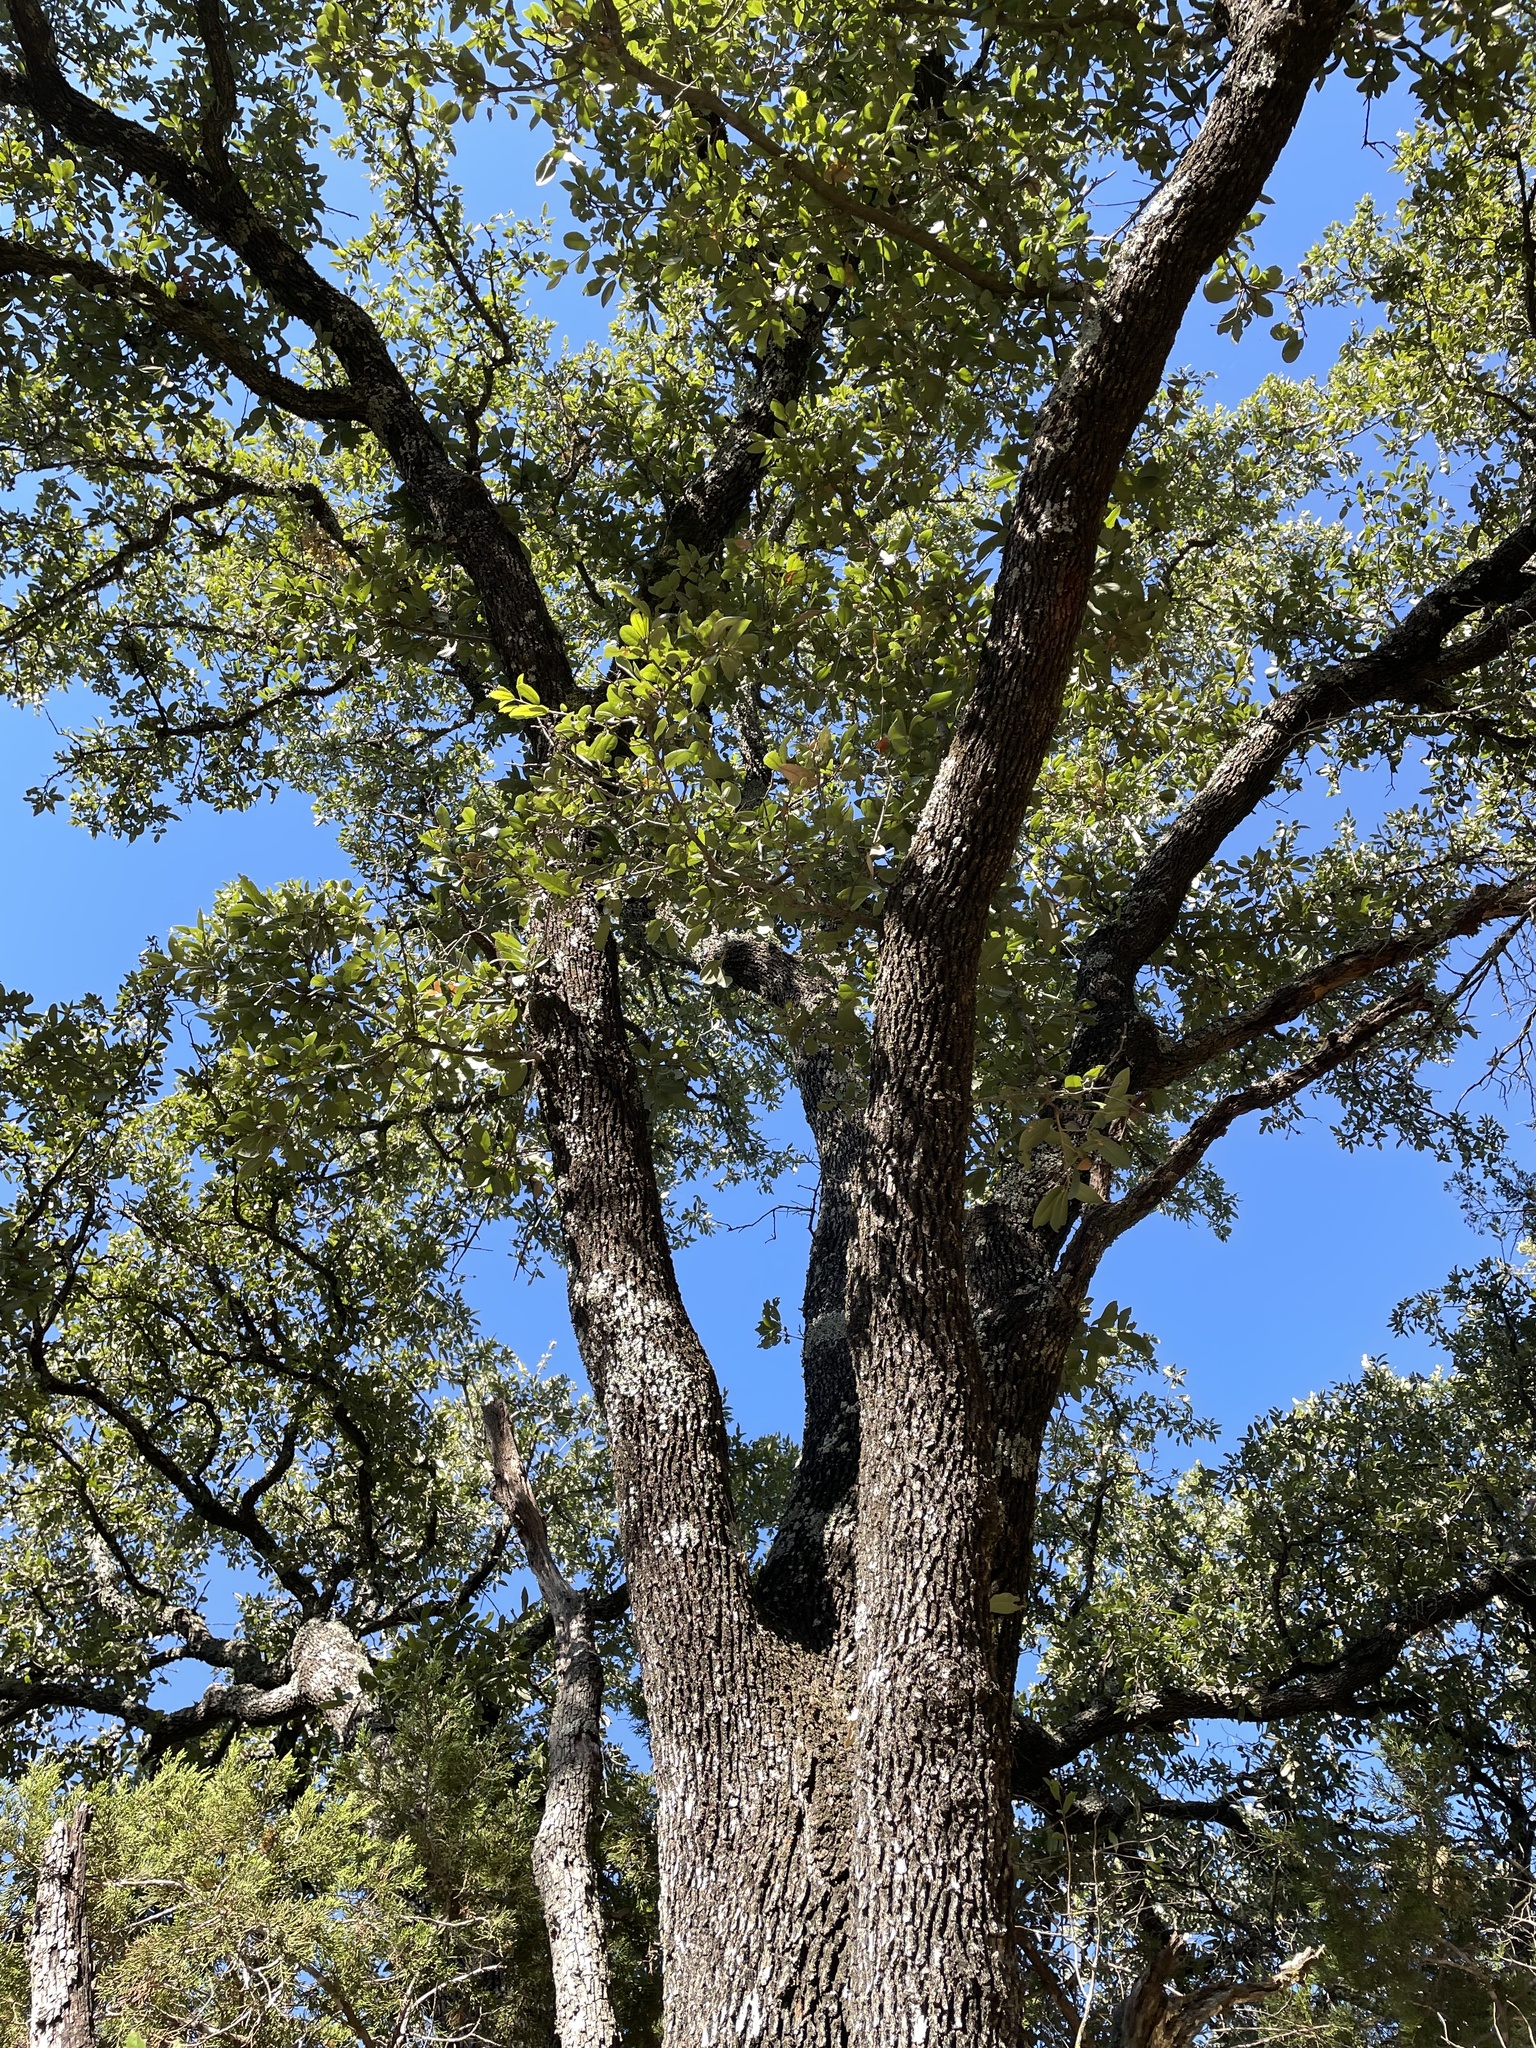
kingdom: Plantae
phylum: Tracheophyta
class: Magnoliopsida
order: Fagales
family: Fagaceae
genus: Quercus
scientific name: Quercus fusiformis
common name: Texas live oak
